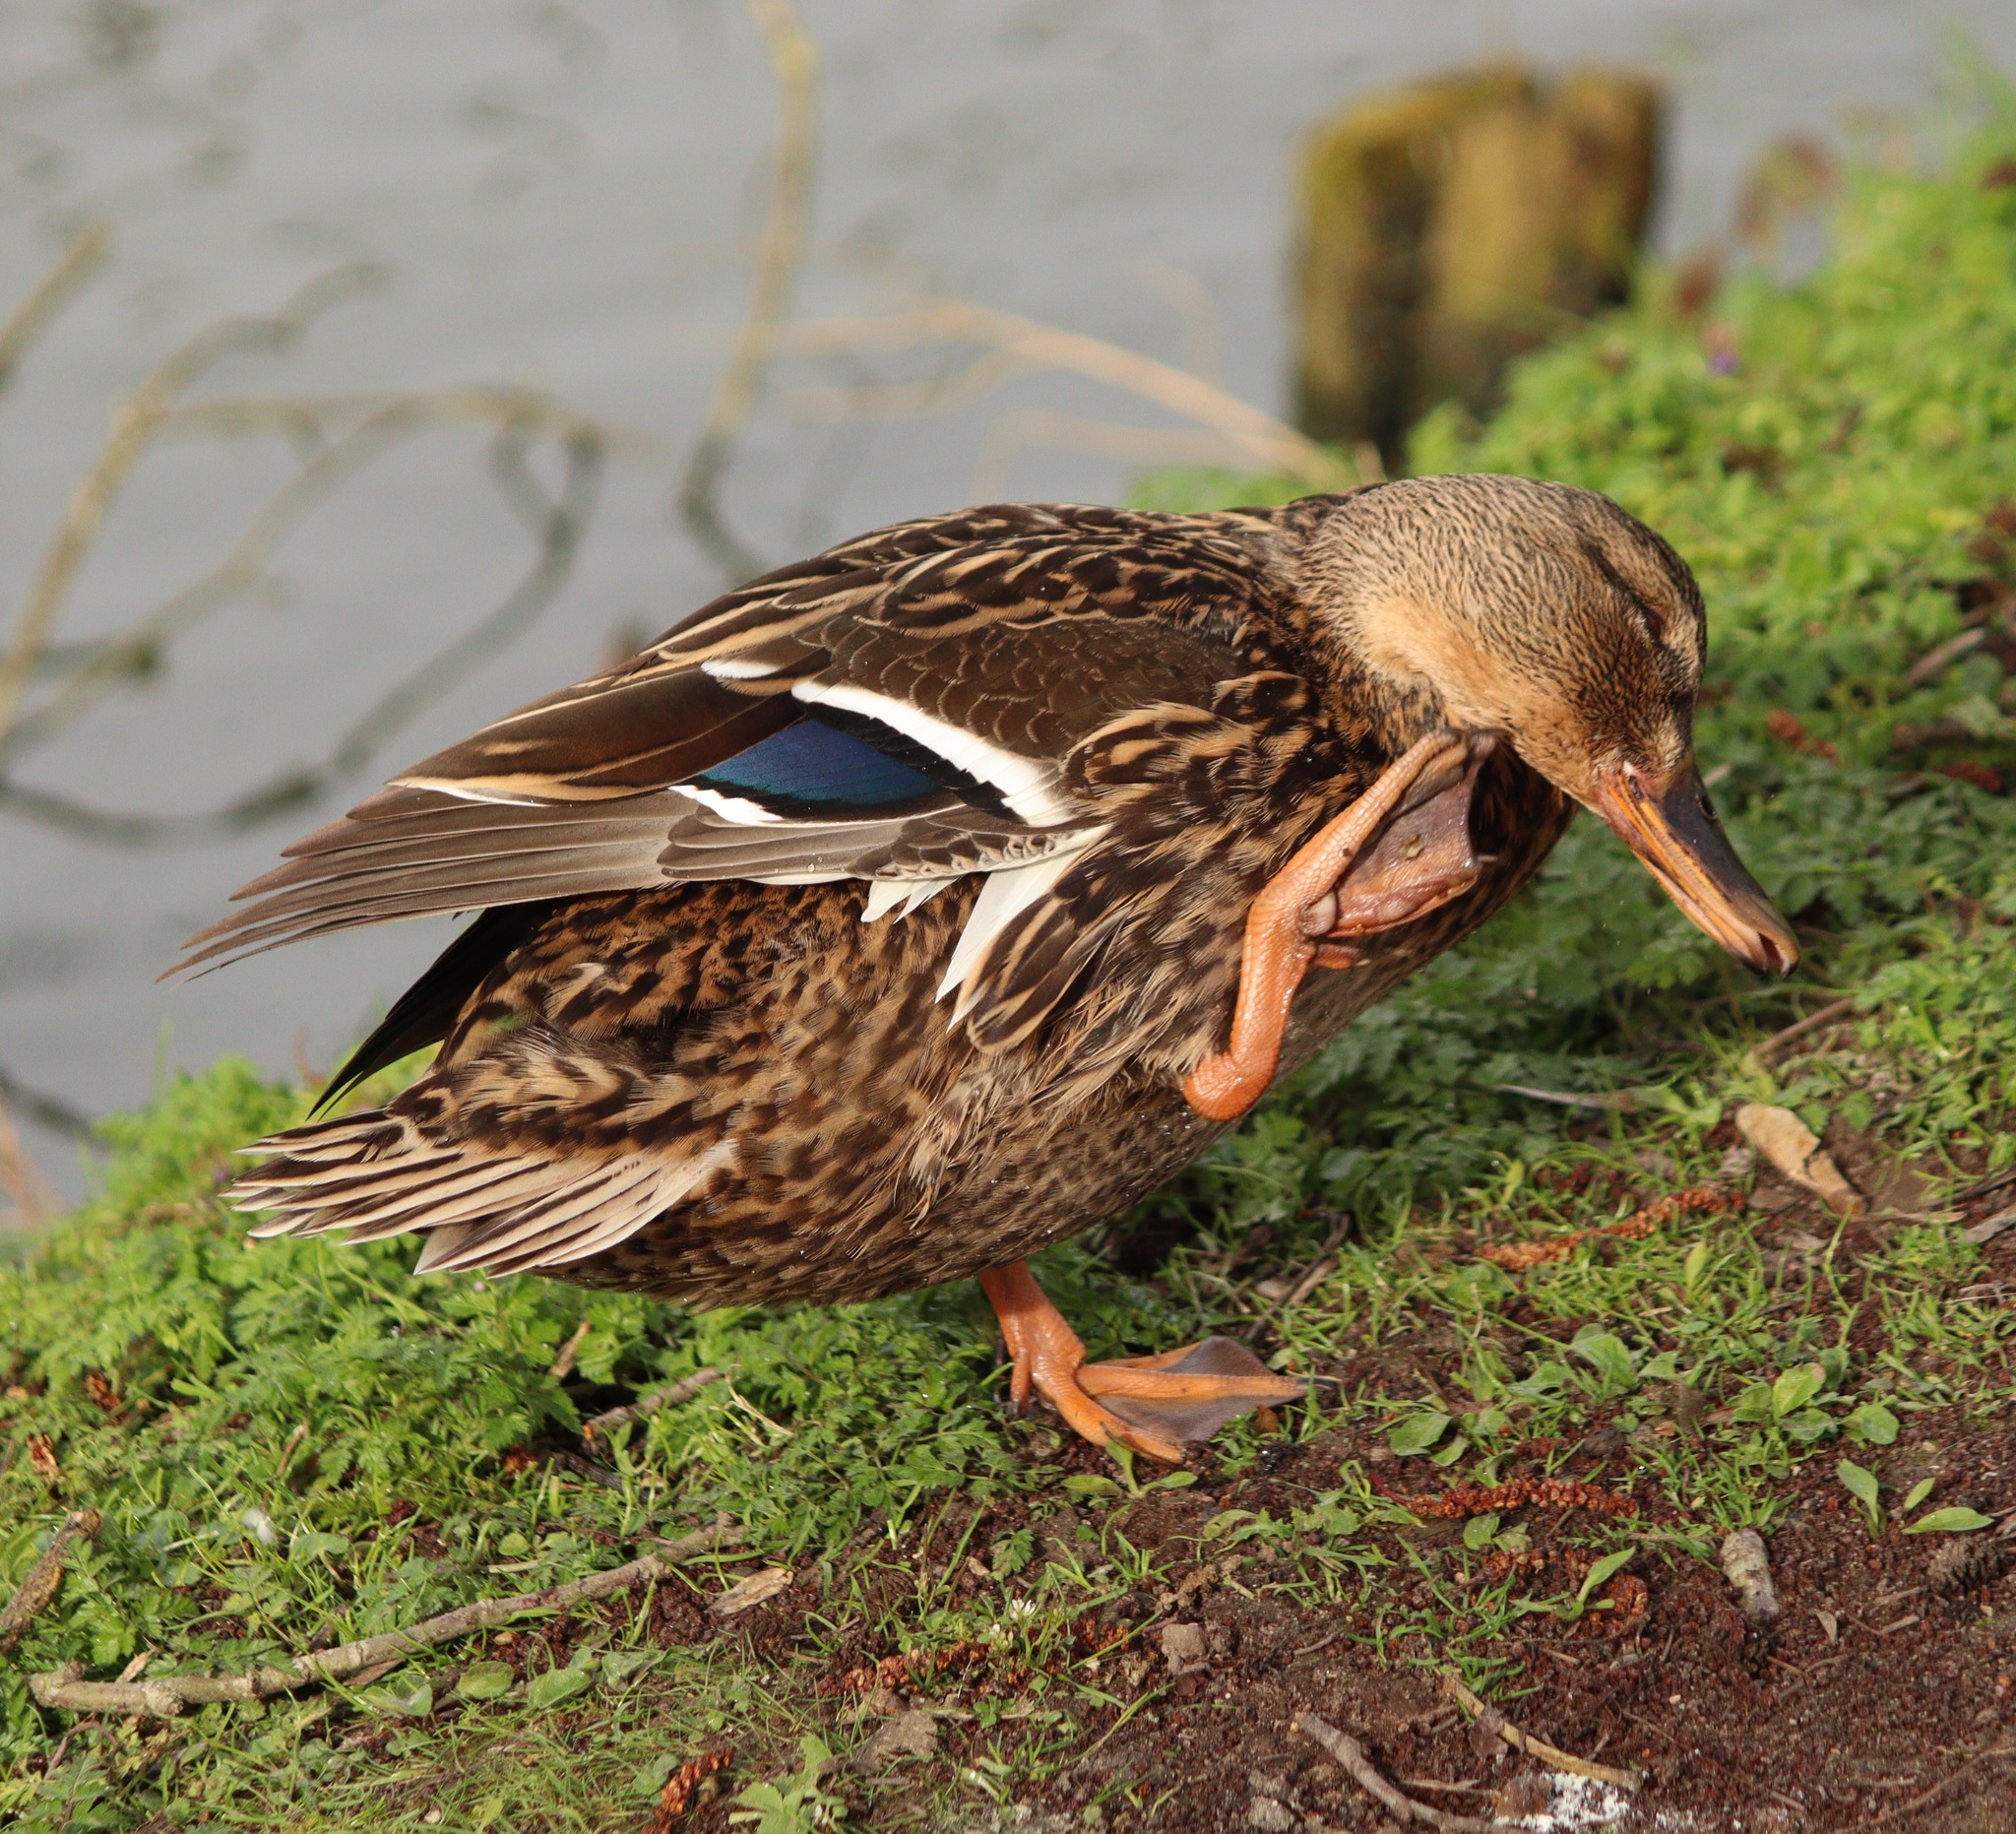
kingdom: Animalia
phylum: Chordata
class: Aves
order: Anseriformes
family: Anatidae
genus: Anas
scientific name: Anas platyrhynchos
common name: Mallard
